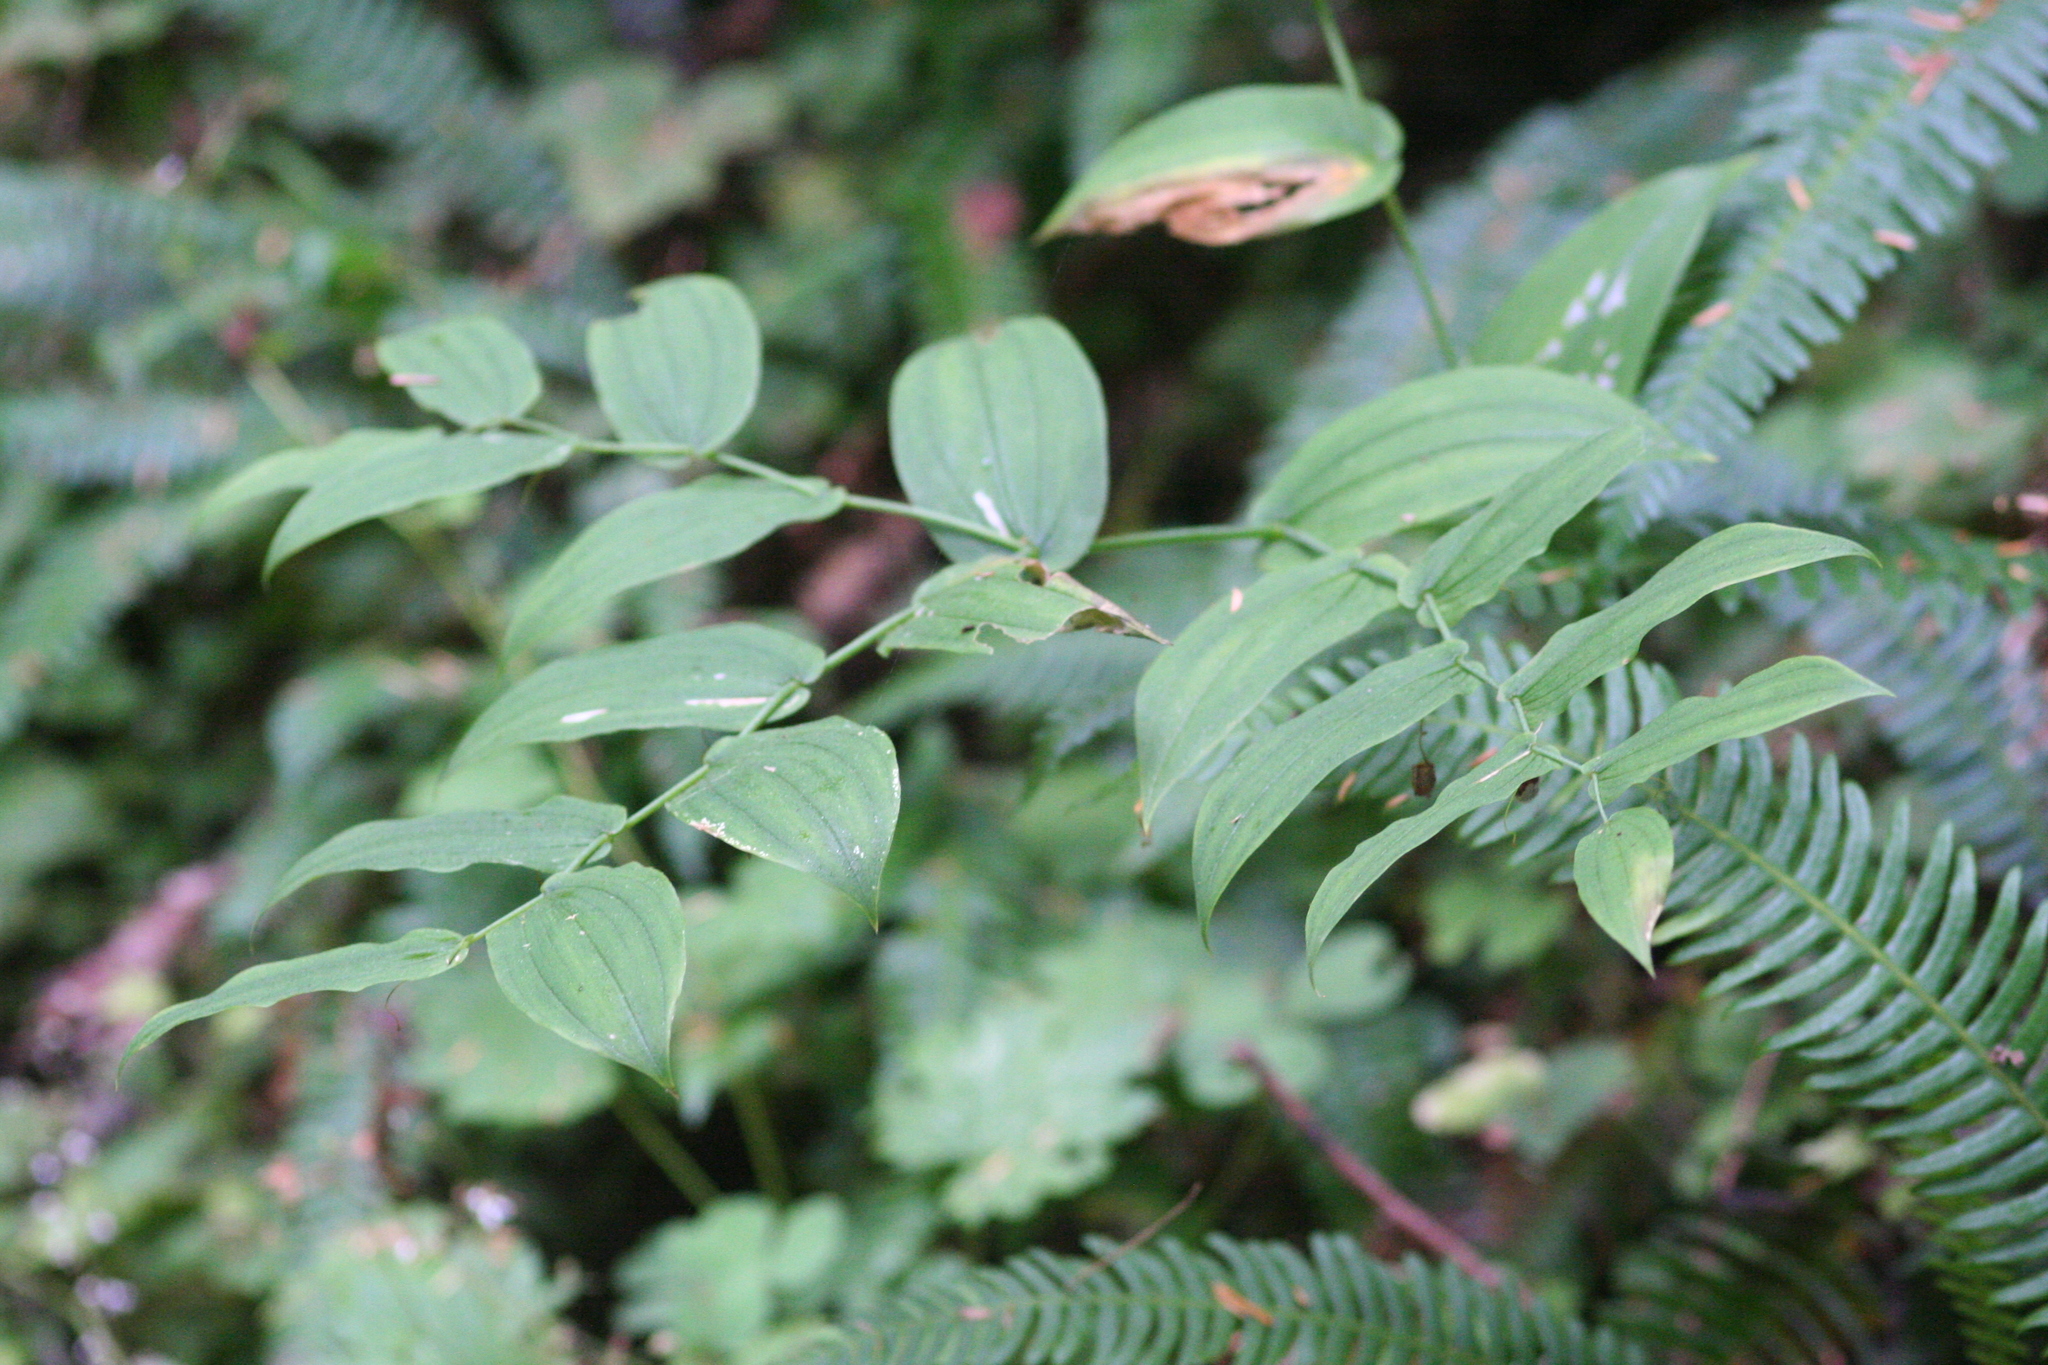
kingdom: Plantae
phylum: Tracheophyta
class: Liliopsida
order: Liliales
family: Liliaceae
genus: Streptopus
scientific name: Streptopus amplexifolius
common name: Clasp twisted stalk
